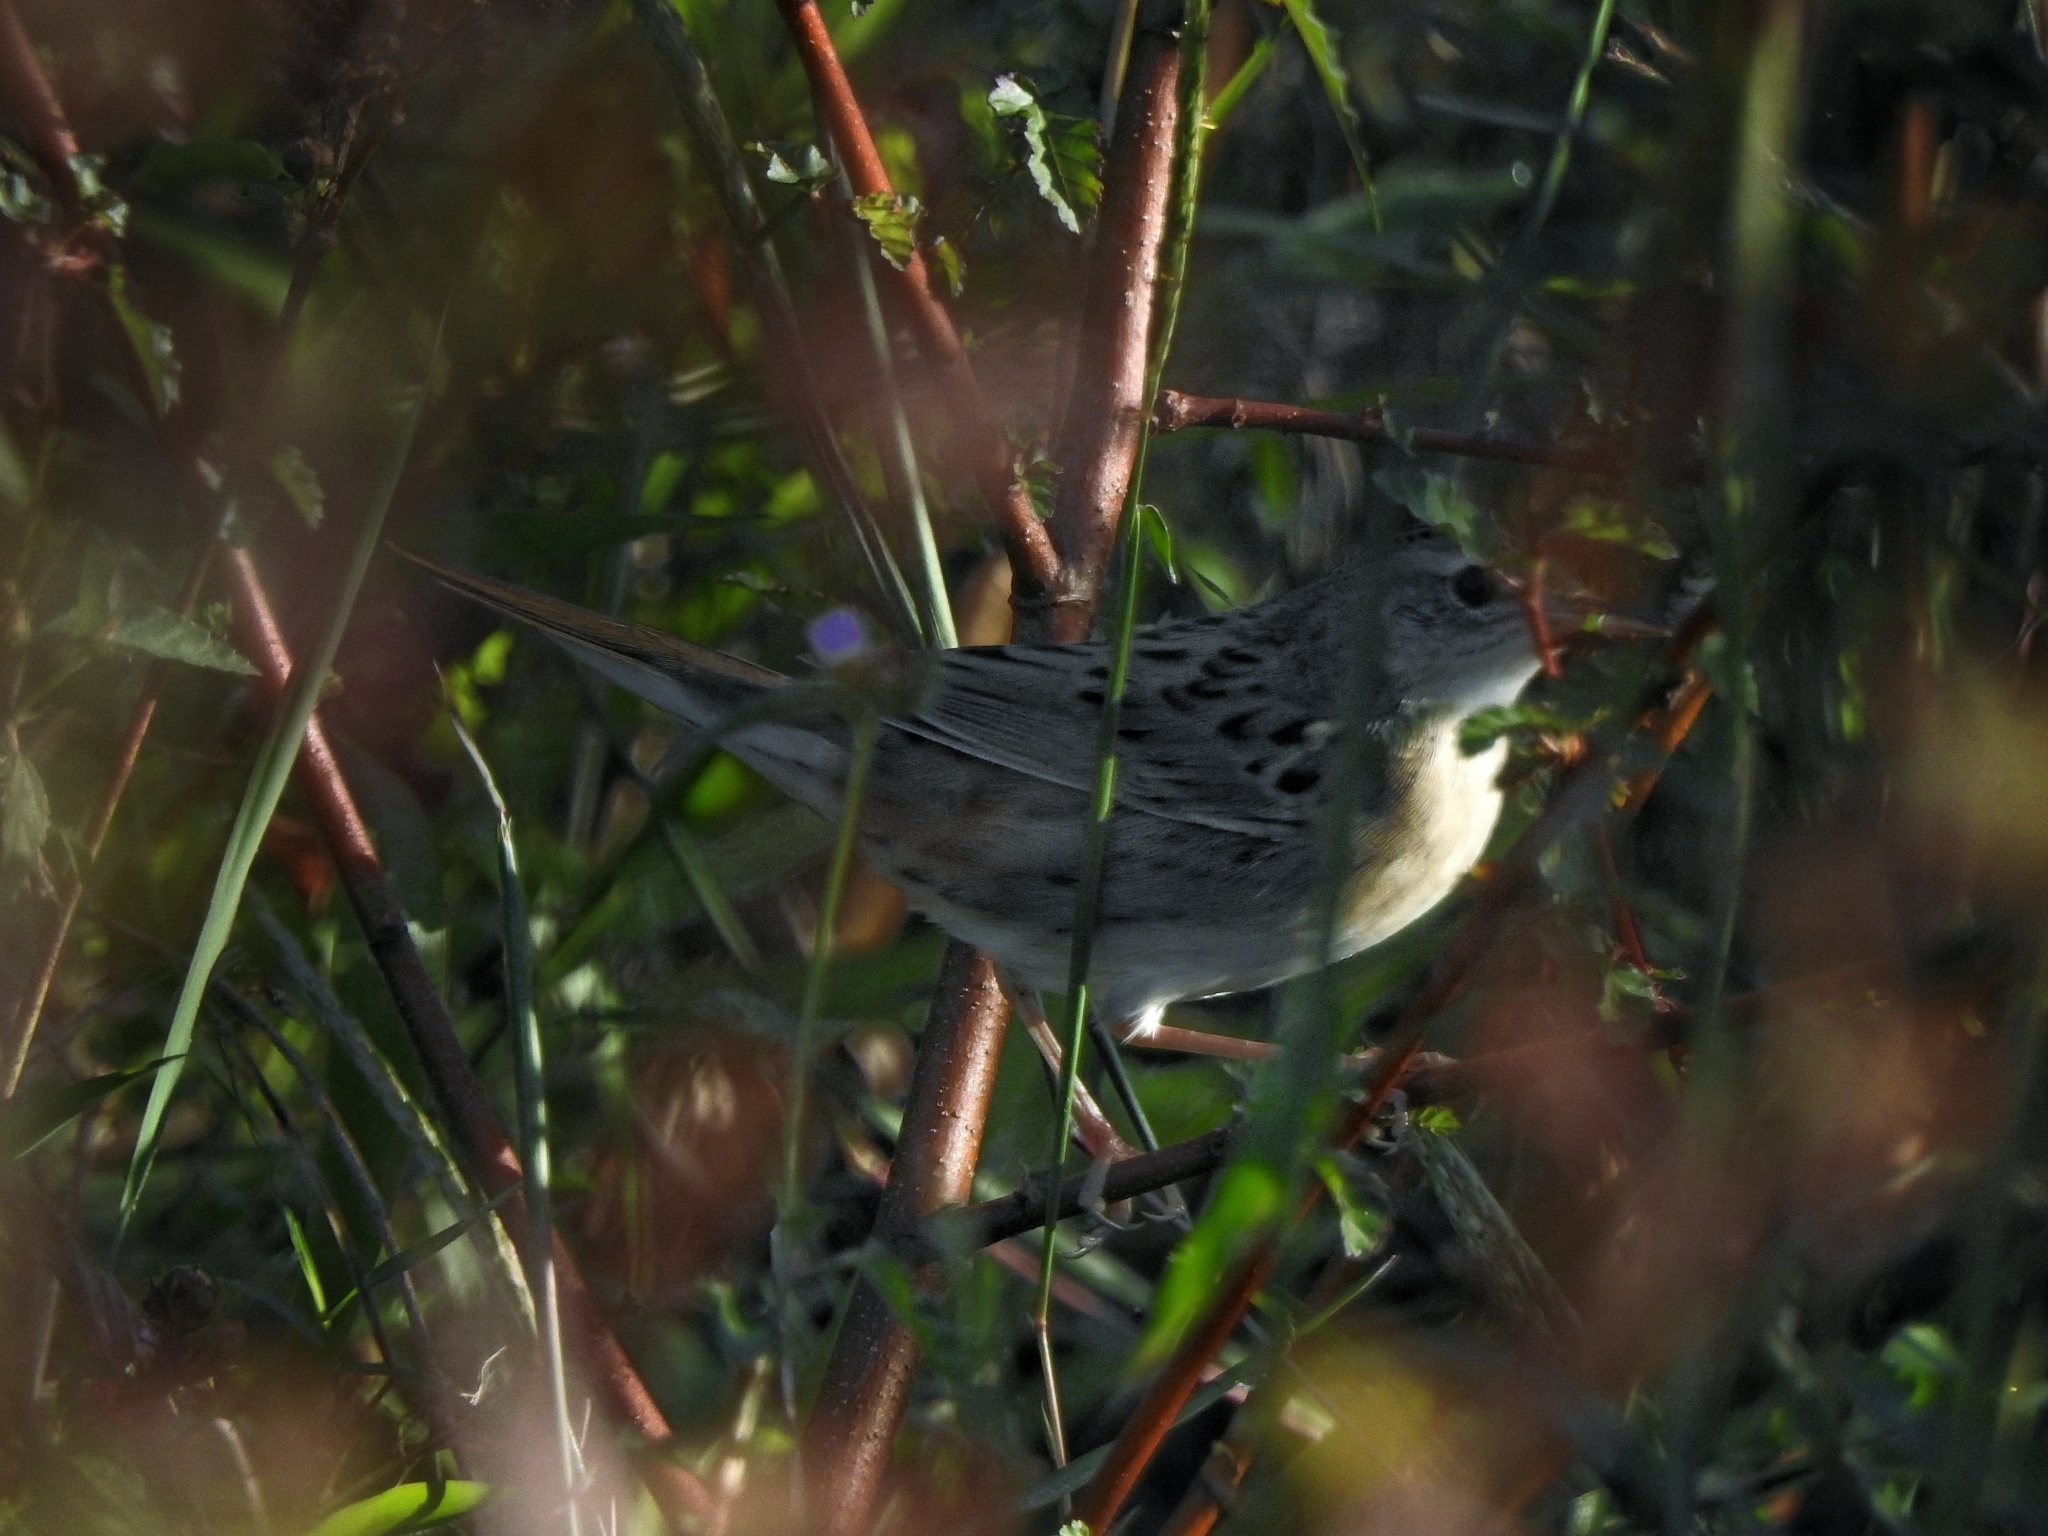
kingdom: Animalia
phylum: Chordata
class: Aves
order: Passeriformes
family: Locustellidae
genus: Locustella
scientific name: Locustella naevia
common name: Common grasshopper warbler
